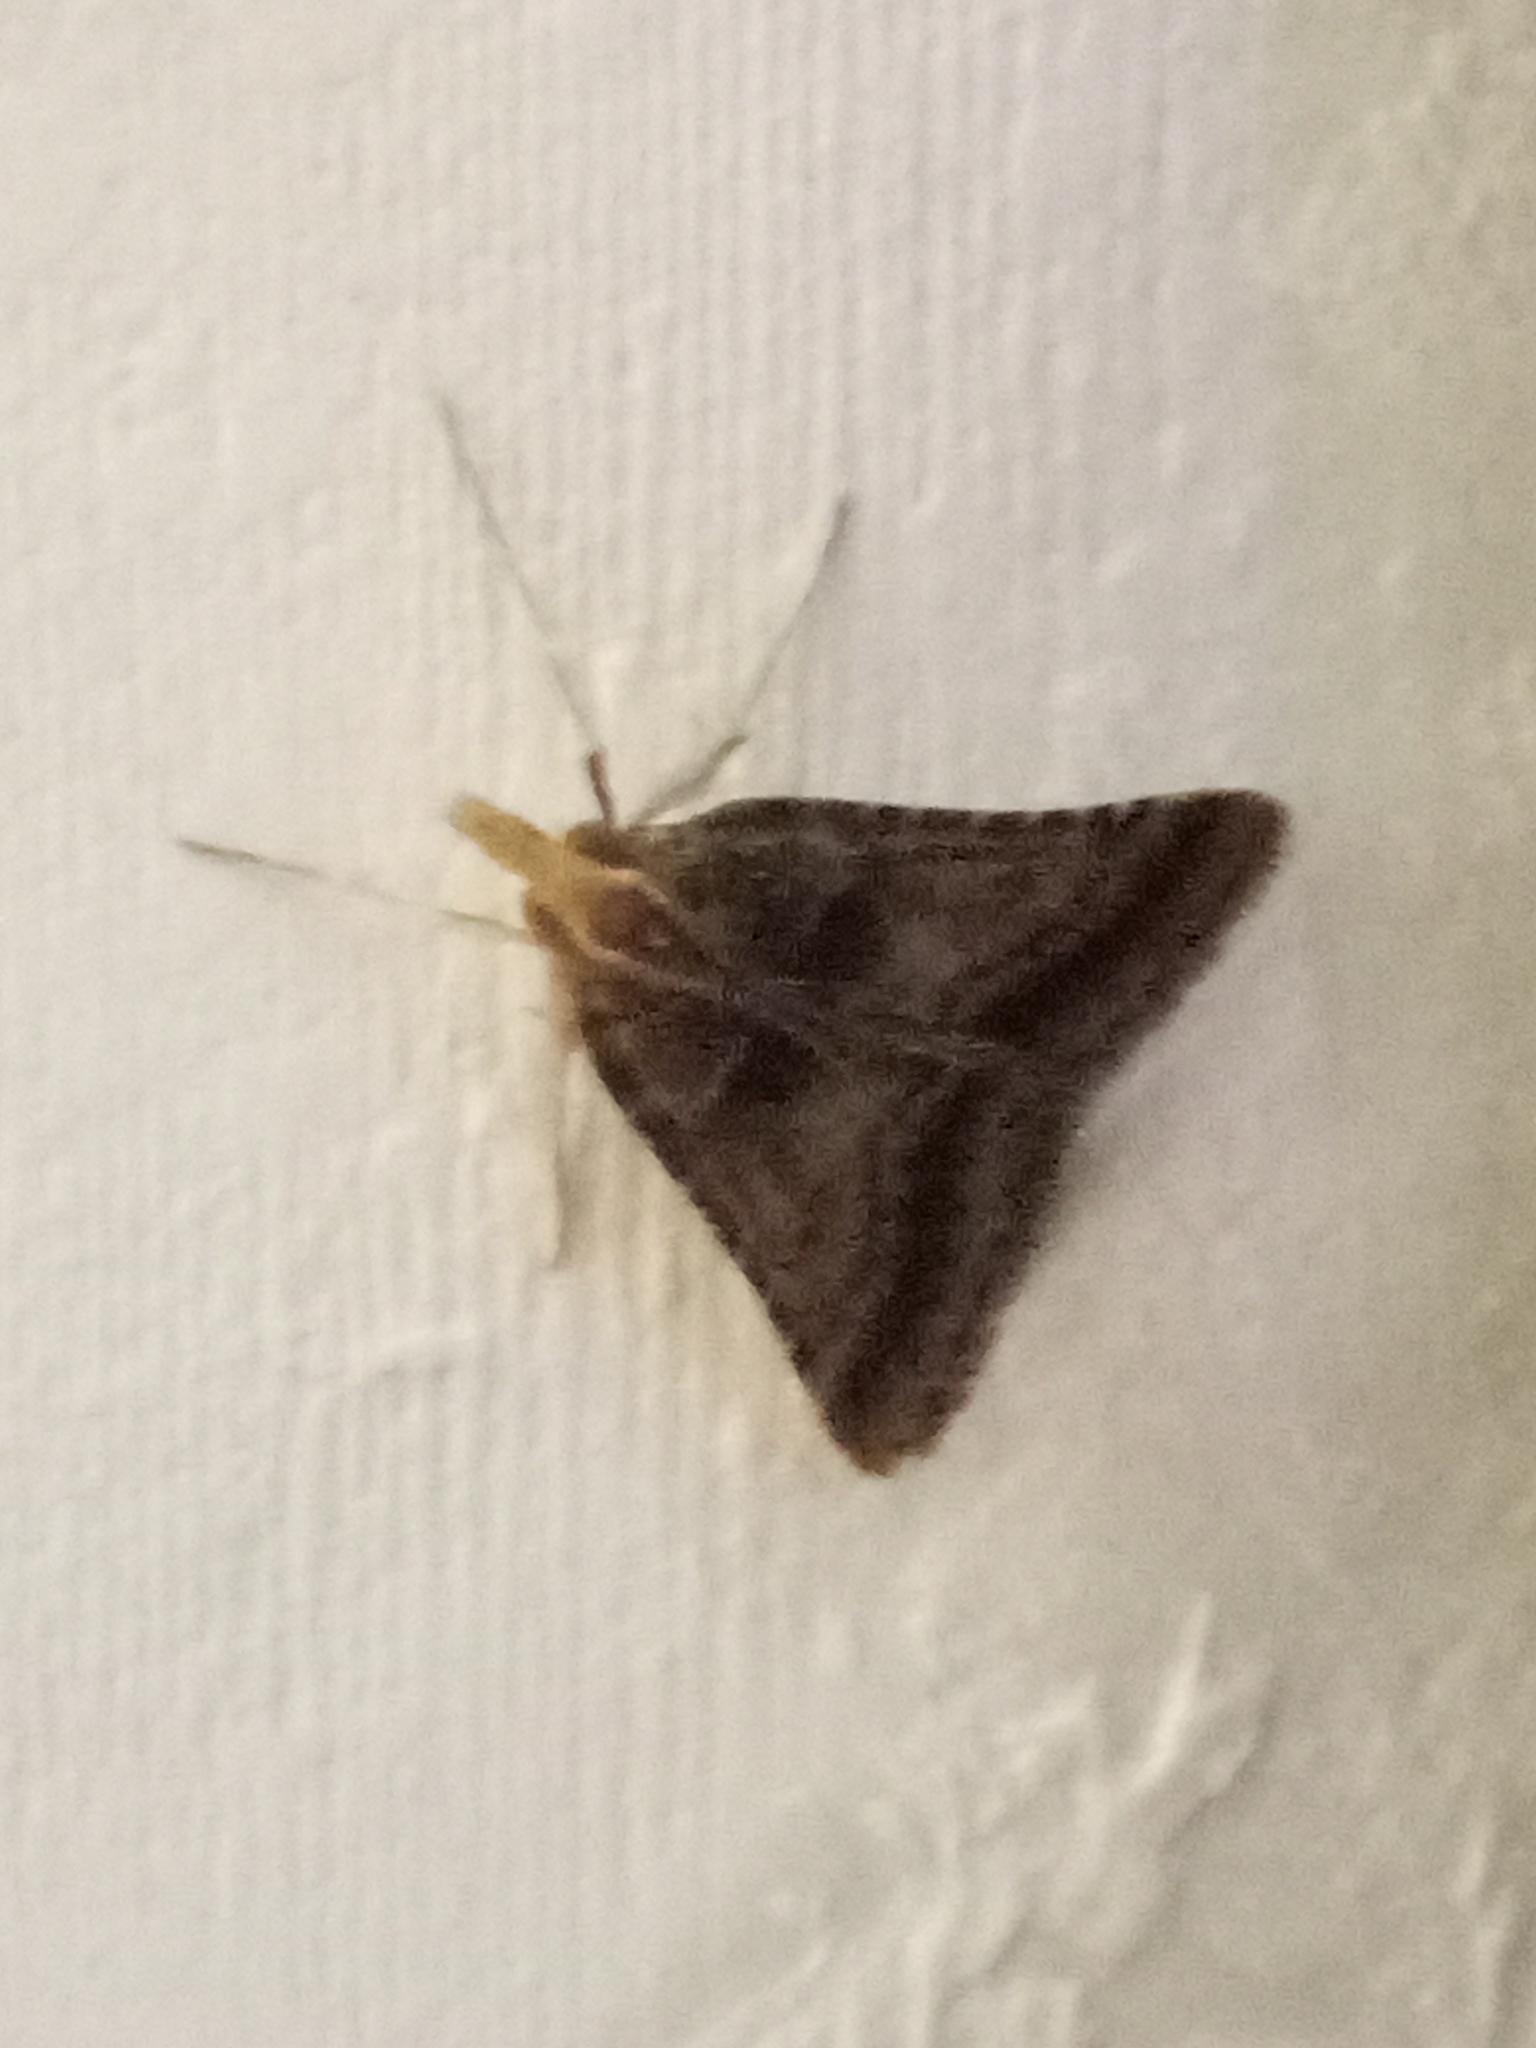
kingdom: Animalia
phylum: Arthropoda
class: Insecta
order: Lepidoptera
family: Pyralidae
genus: Stemmatophora
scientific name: Stemmatophora brunnealis
